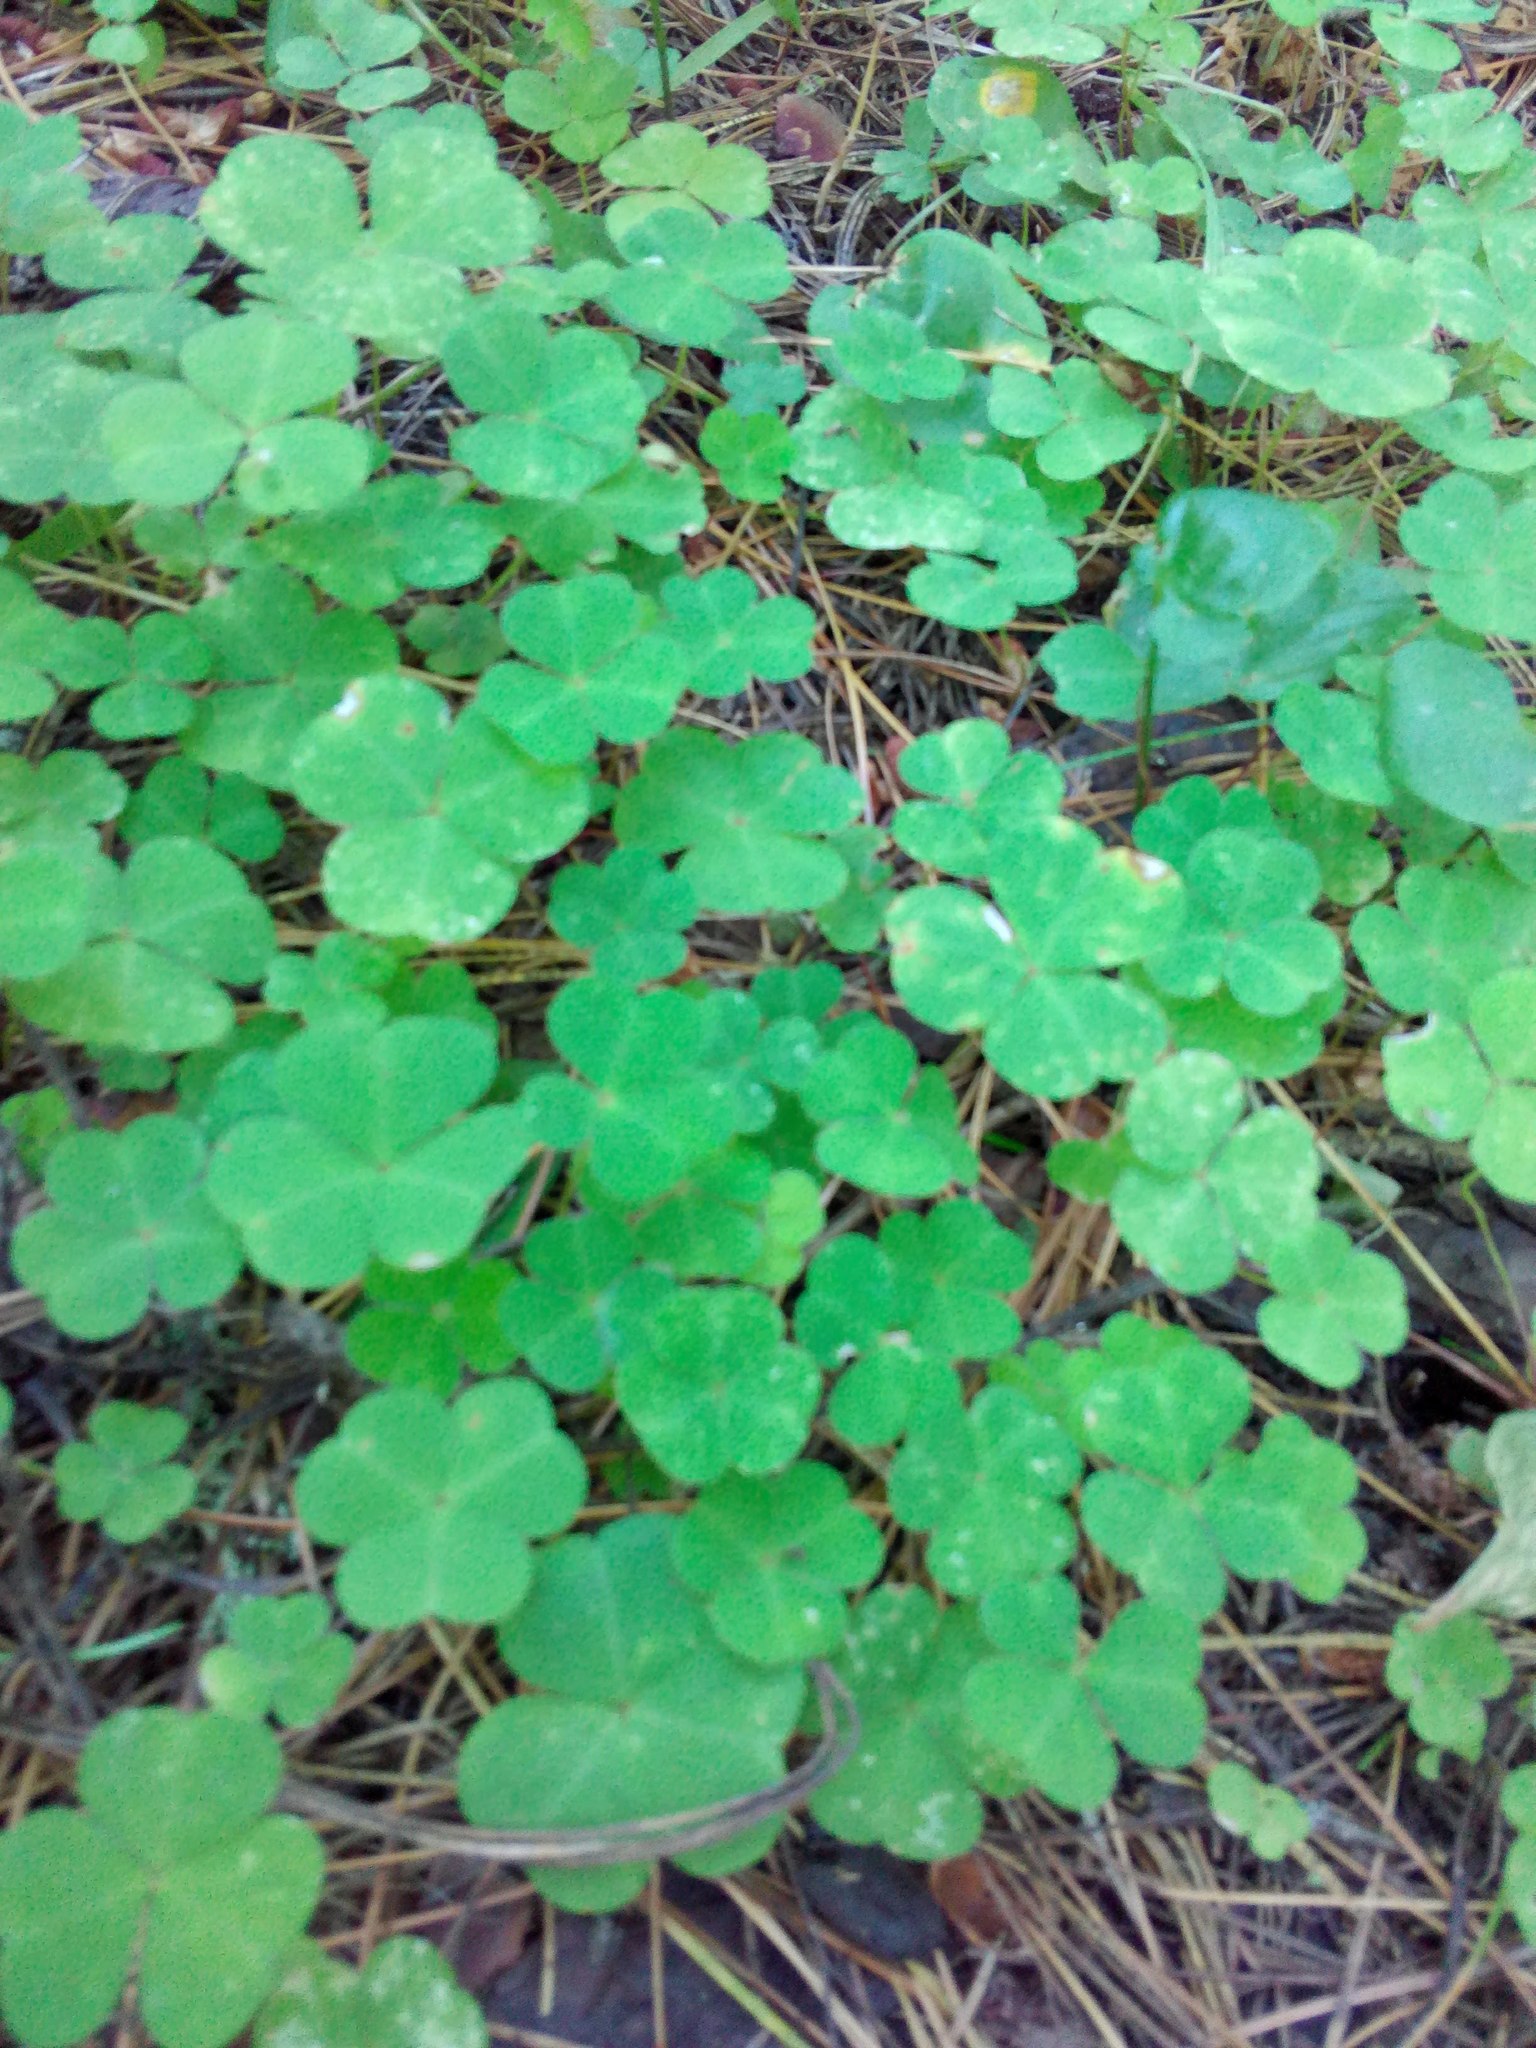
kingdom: Plantae
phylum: Tracheophyta
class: Magnoliopsida
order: Oxalidales
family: Oxalidaceae
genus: Oxalis
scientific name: Oxalis acetosella
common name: Wood-sorrel
